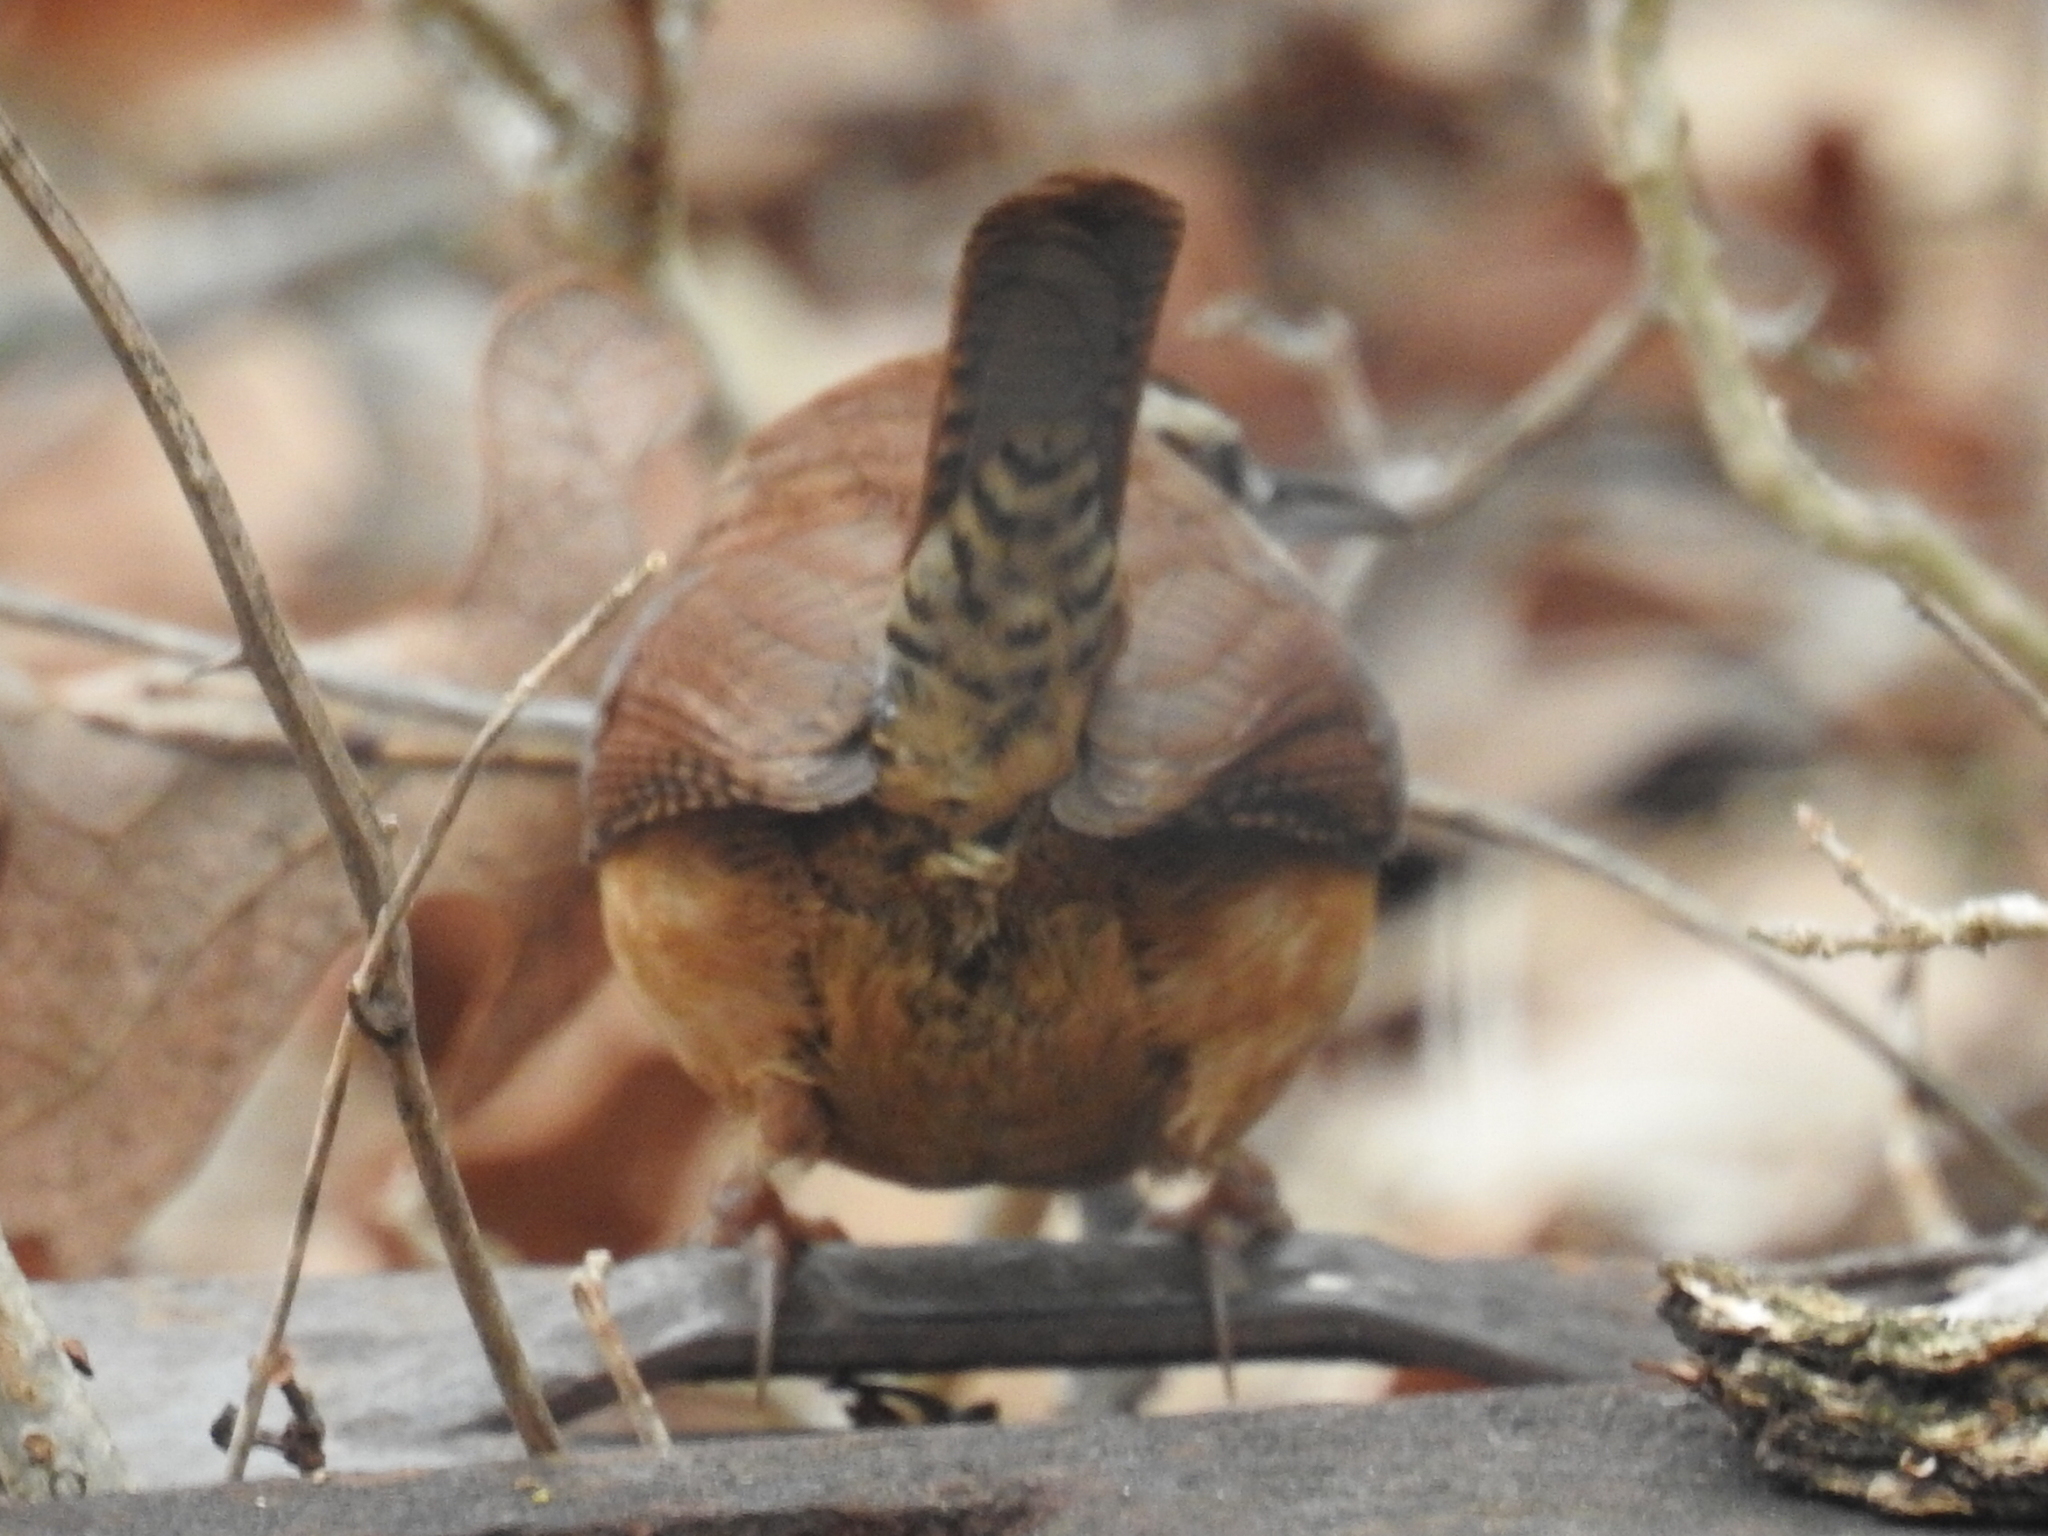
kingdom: Animalia
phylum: Chordata
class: Aves
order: Passeriformes
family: Troglodytidae
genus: Thryothorus
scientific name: Thryothorus ludovicianus
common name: Carolina wren
